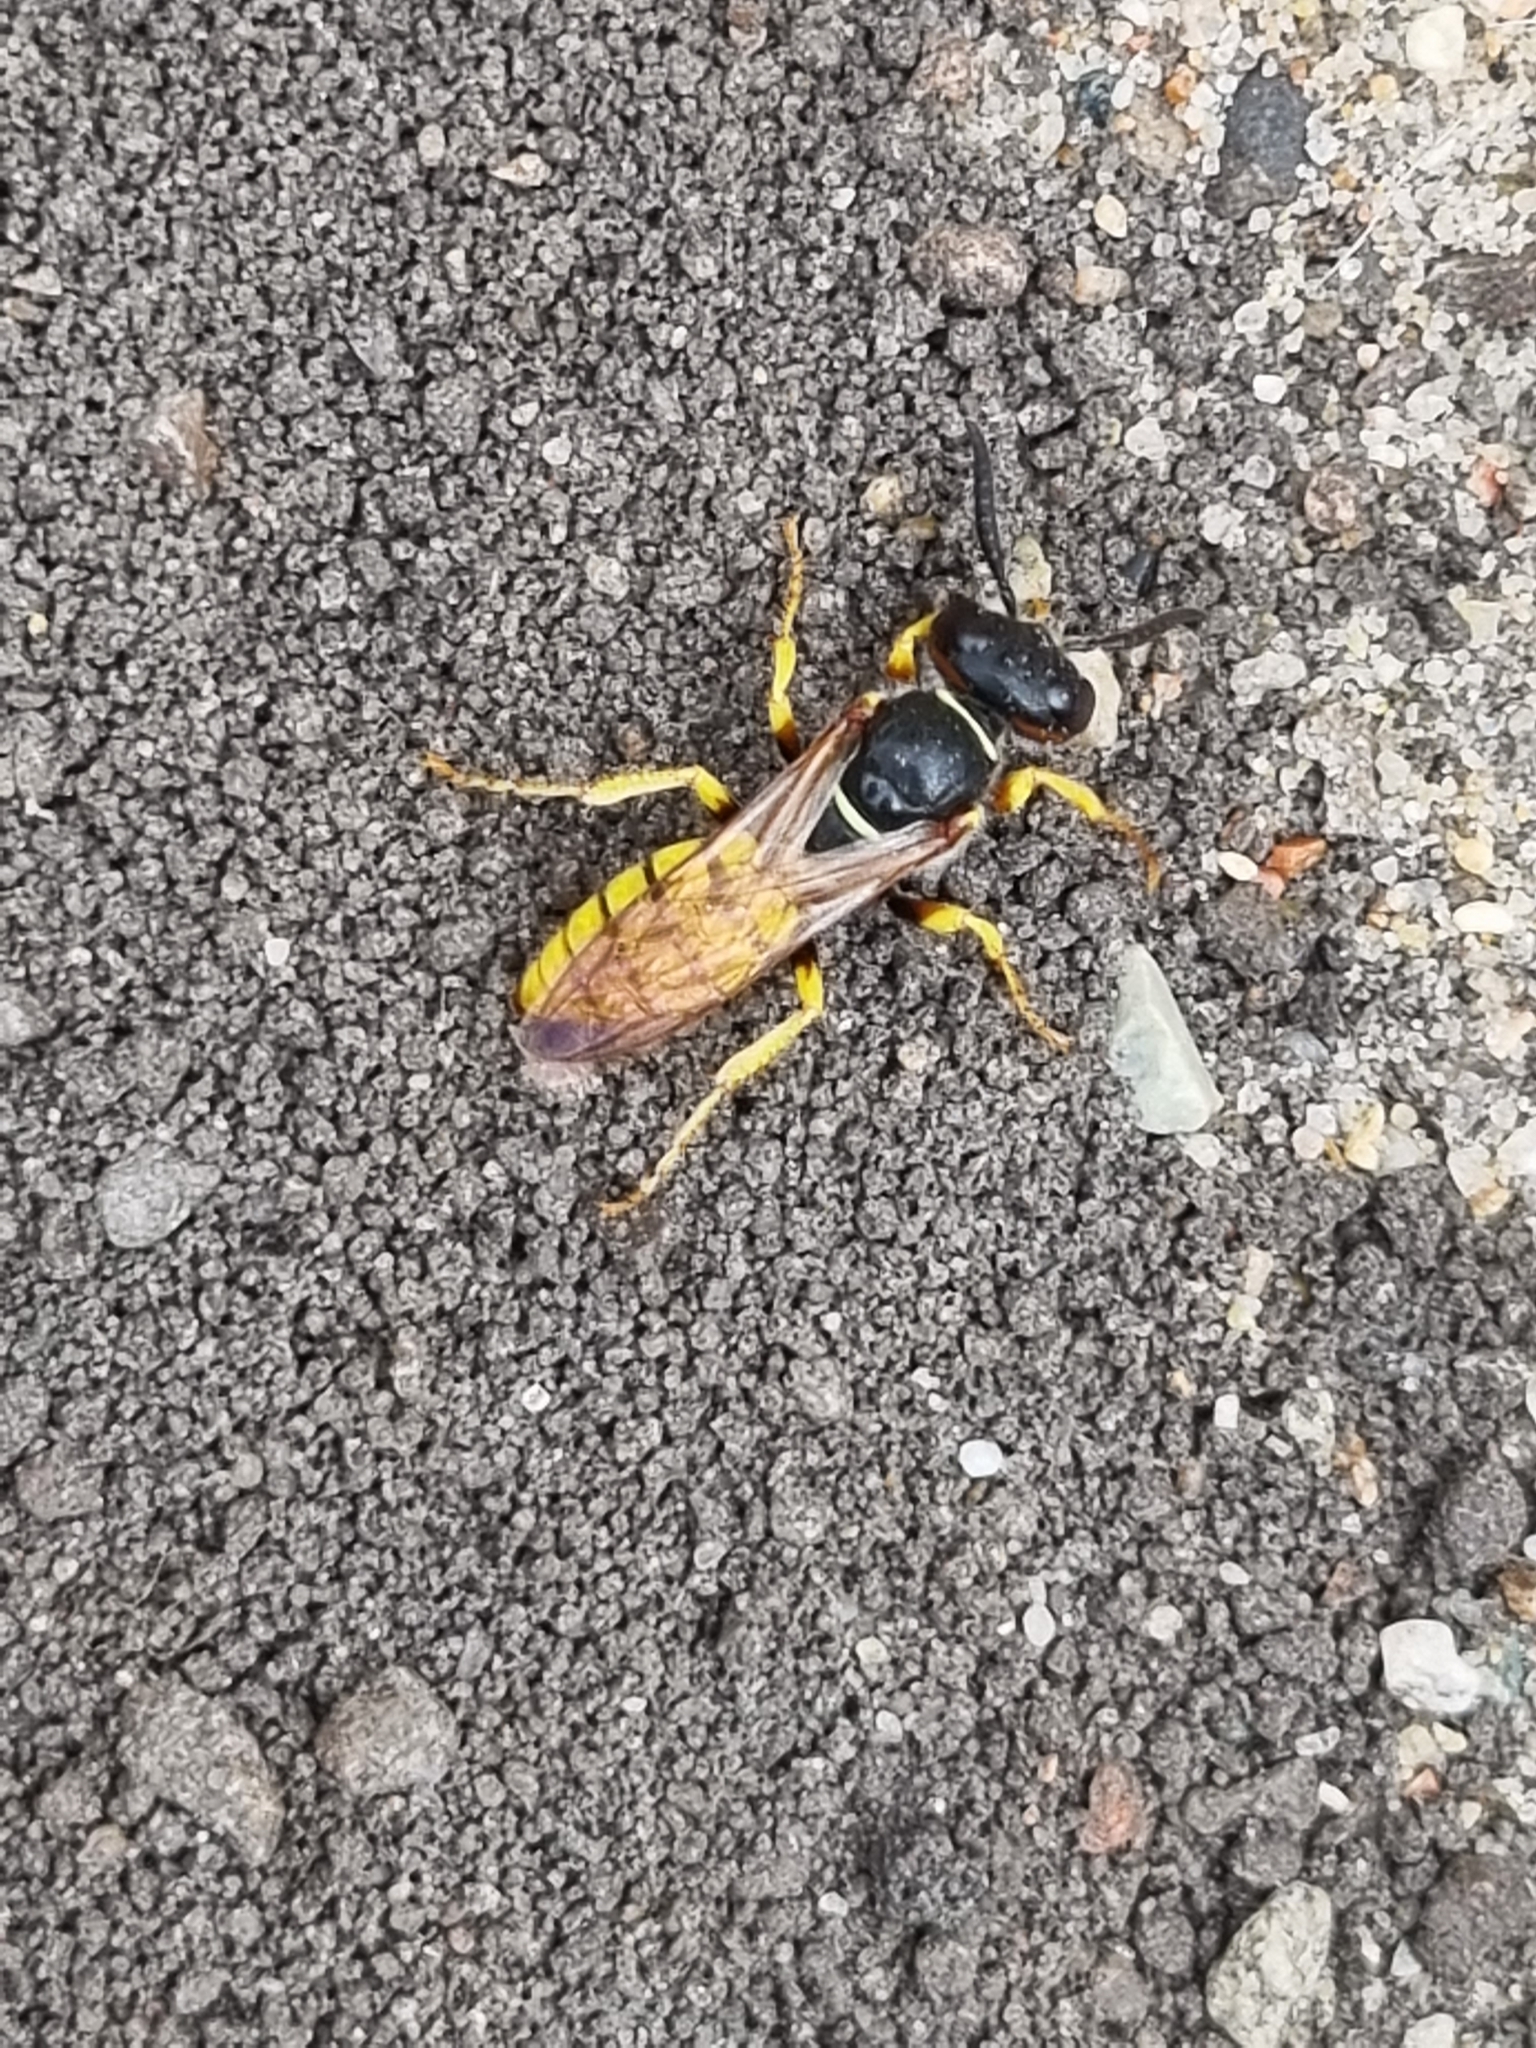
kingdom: Animalia
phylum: Arthropoda
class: Insecta
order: Hymenoptera
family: Crabronidae
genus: Philanthus
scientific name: Philanthus triangulum
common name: Bee wolf
